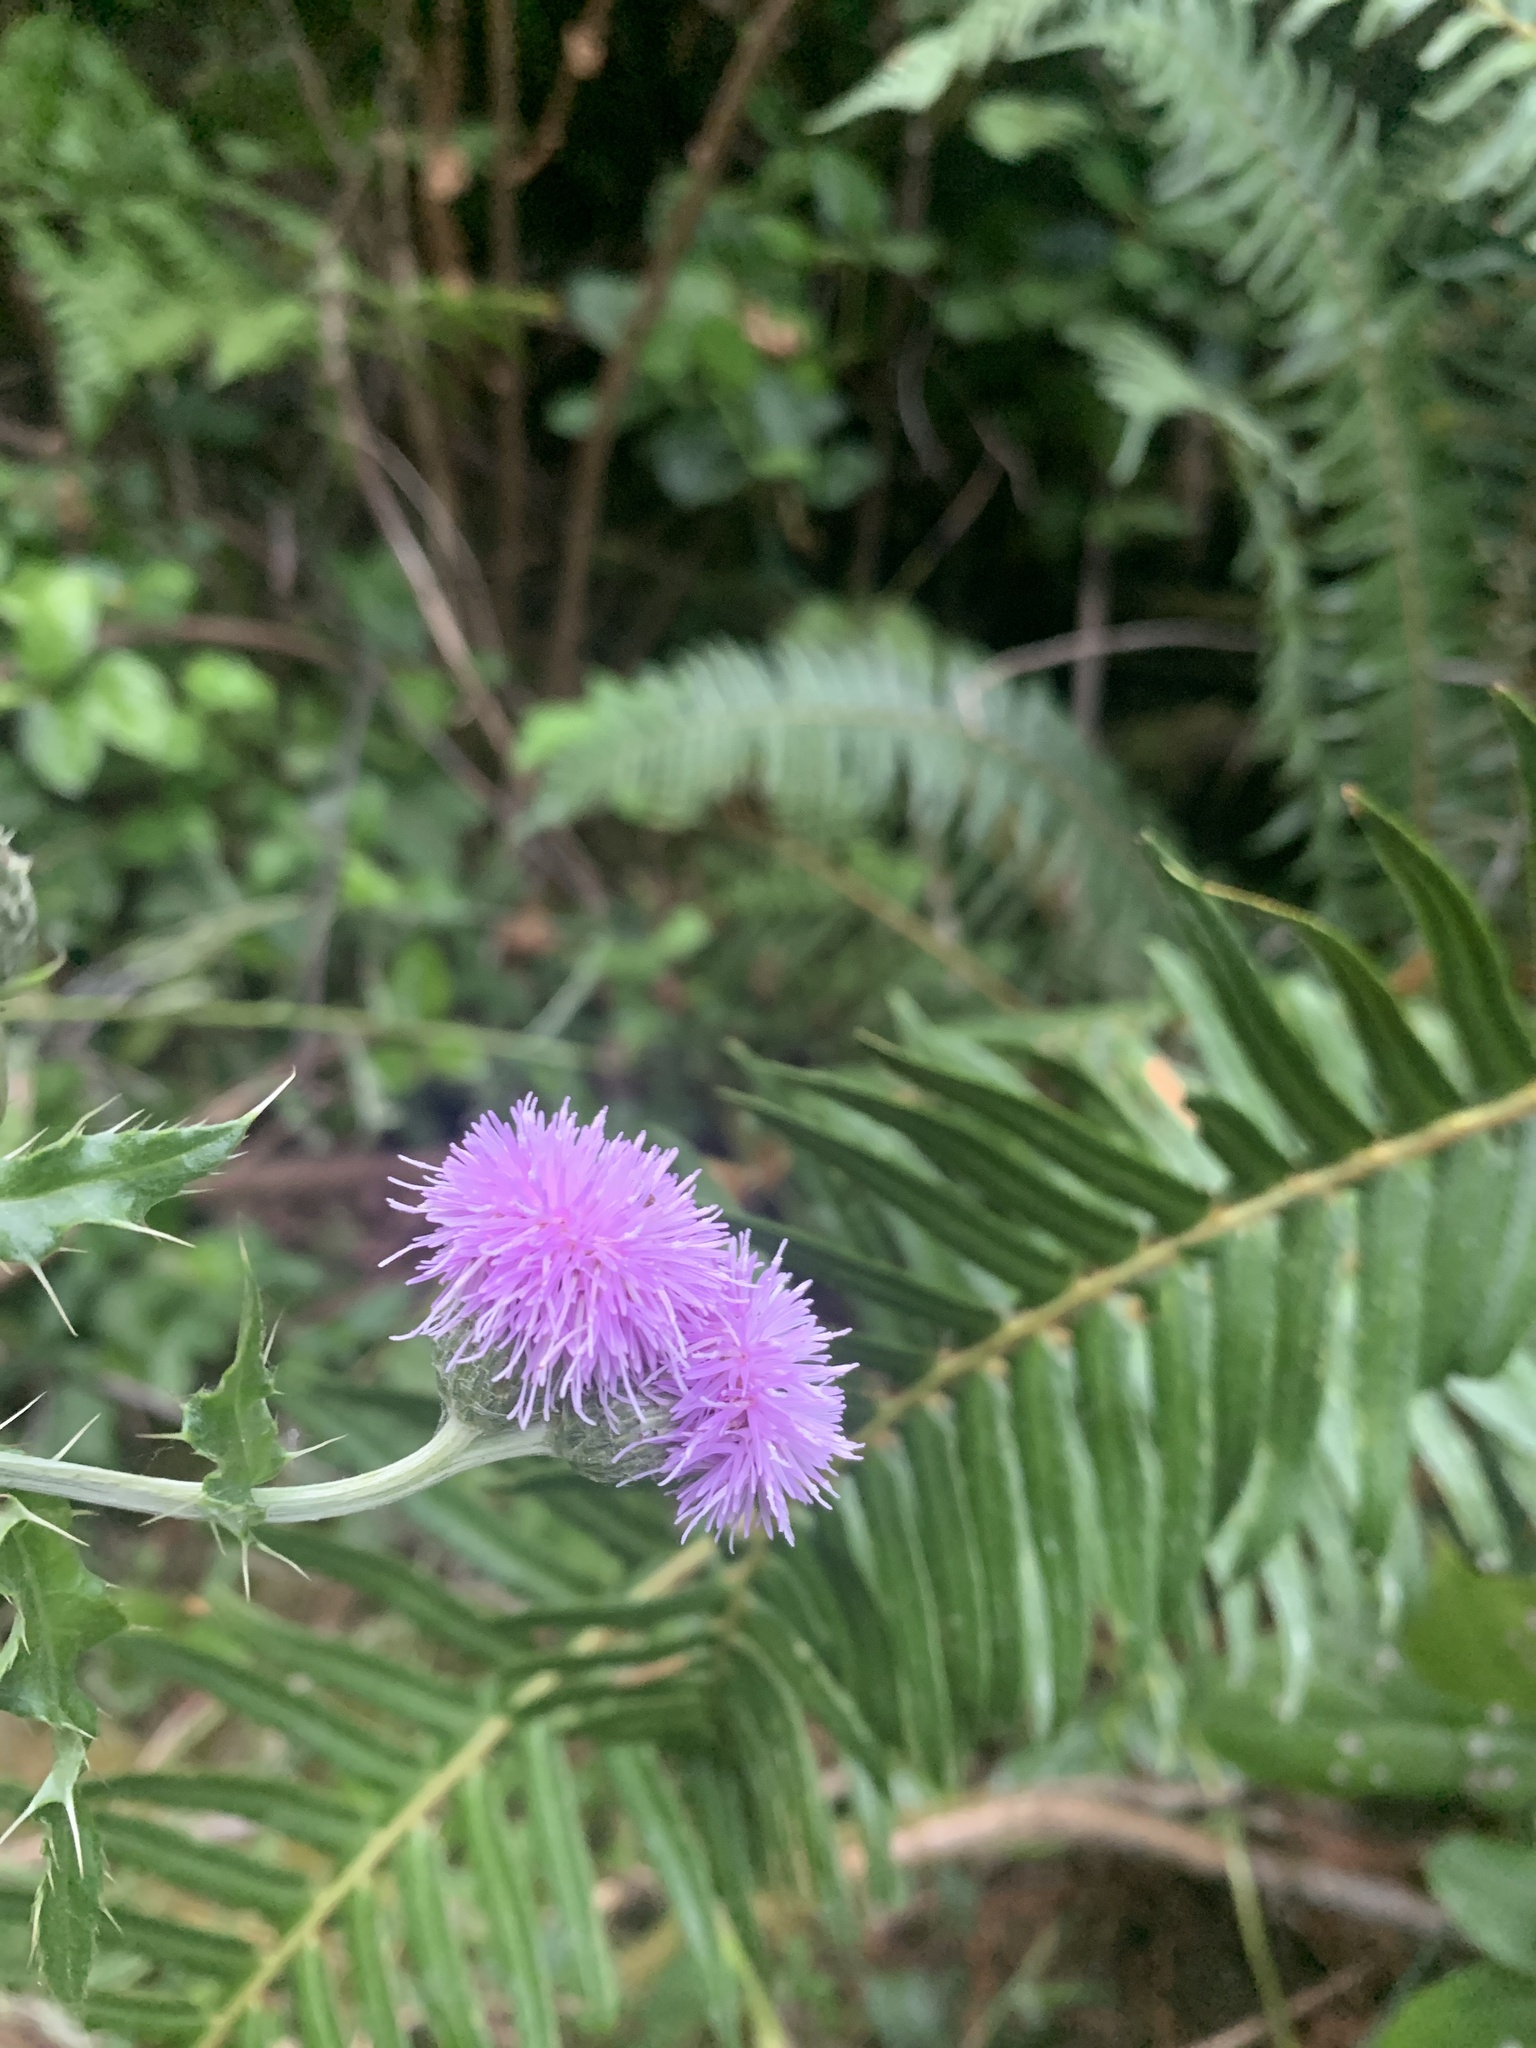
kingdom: Plantae
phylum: Tracheophyta
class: Magnoliopsida
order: Asterales
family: Asteraceae
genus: Cirsium
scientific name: Cirsium arvense
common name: Creeping thistle
